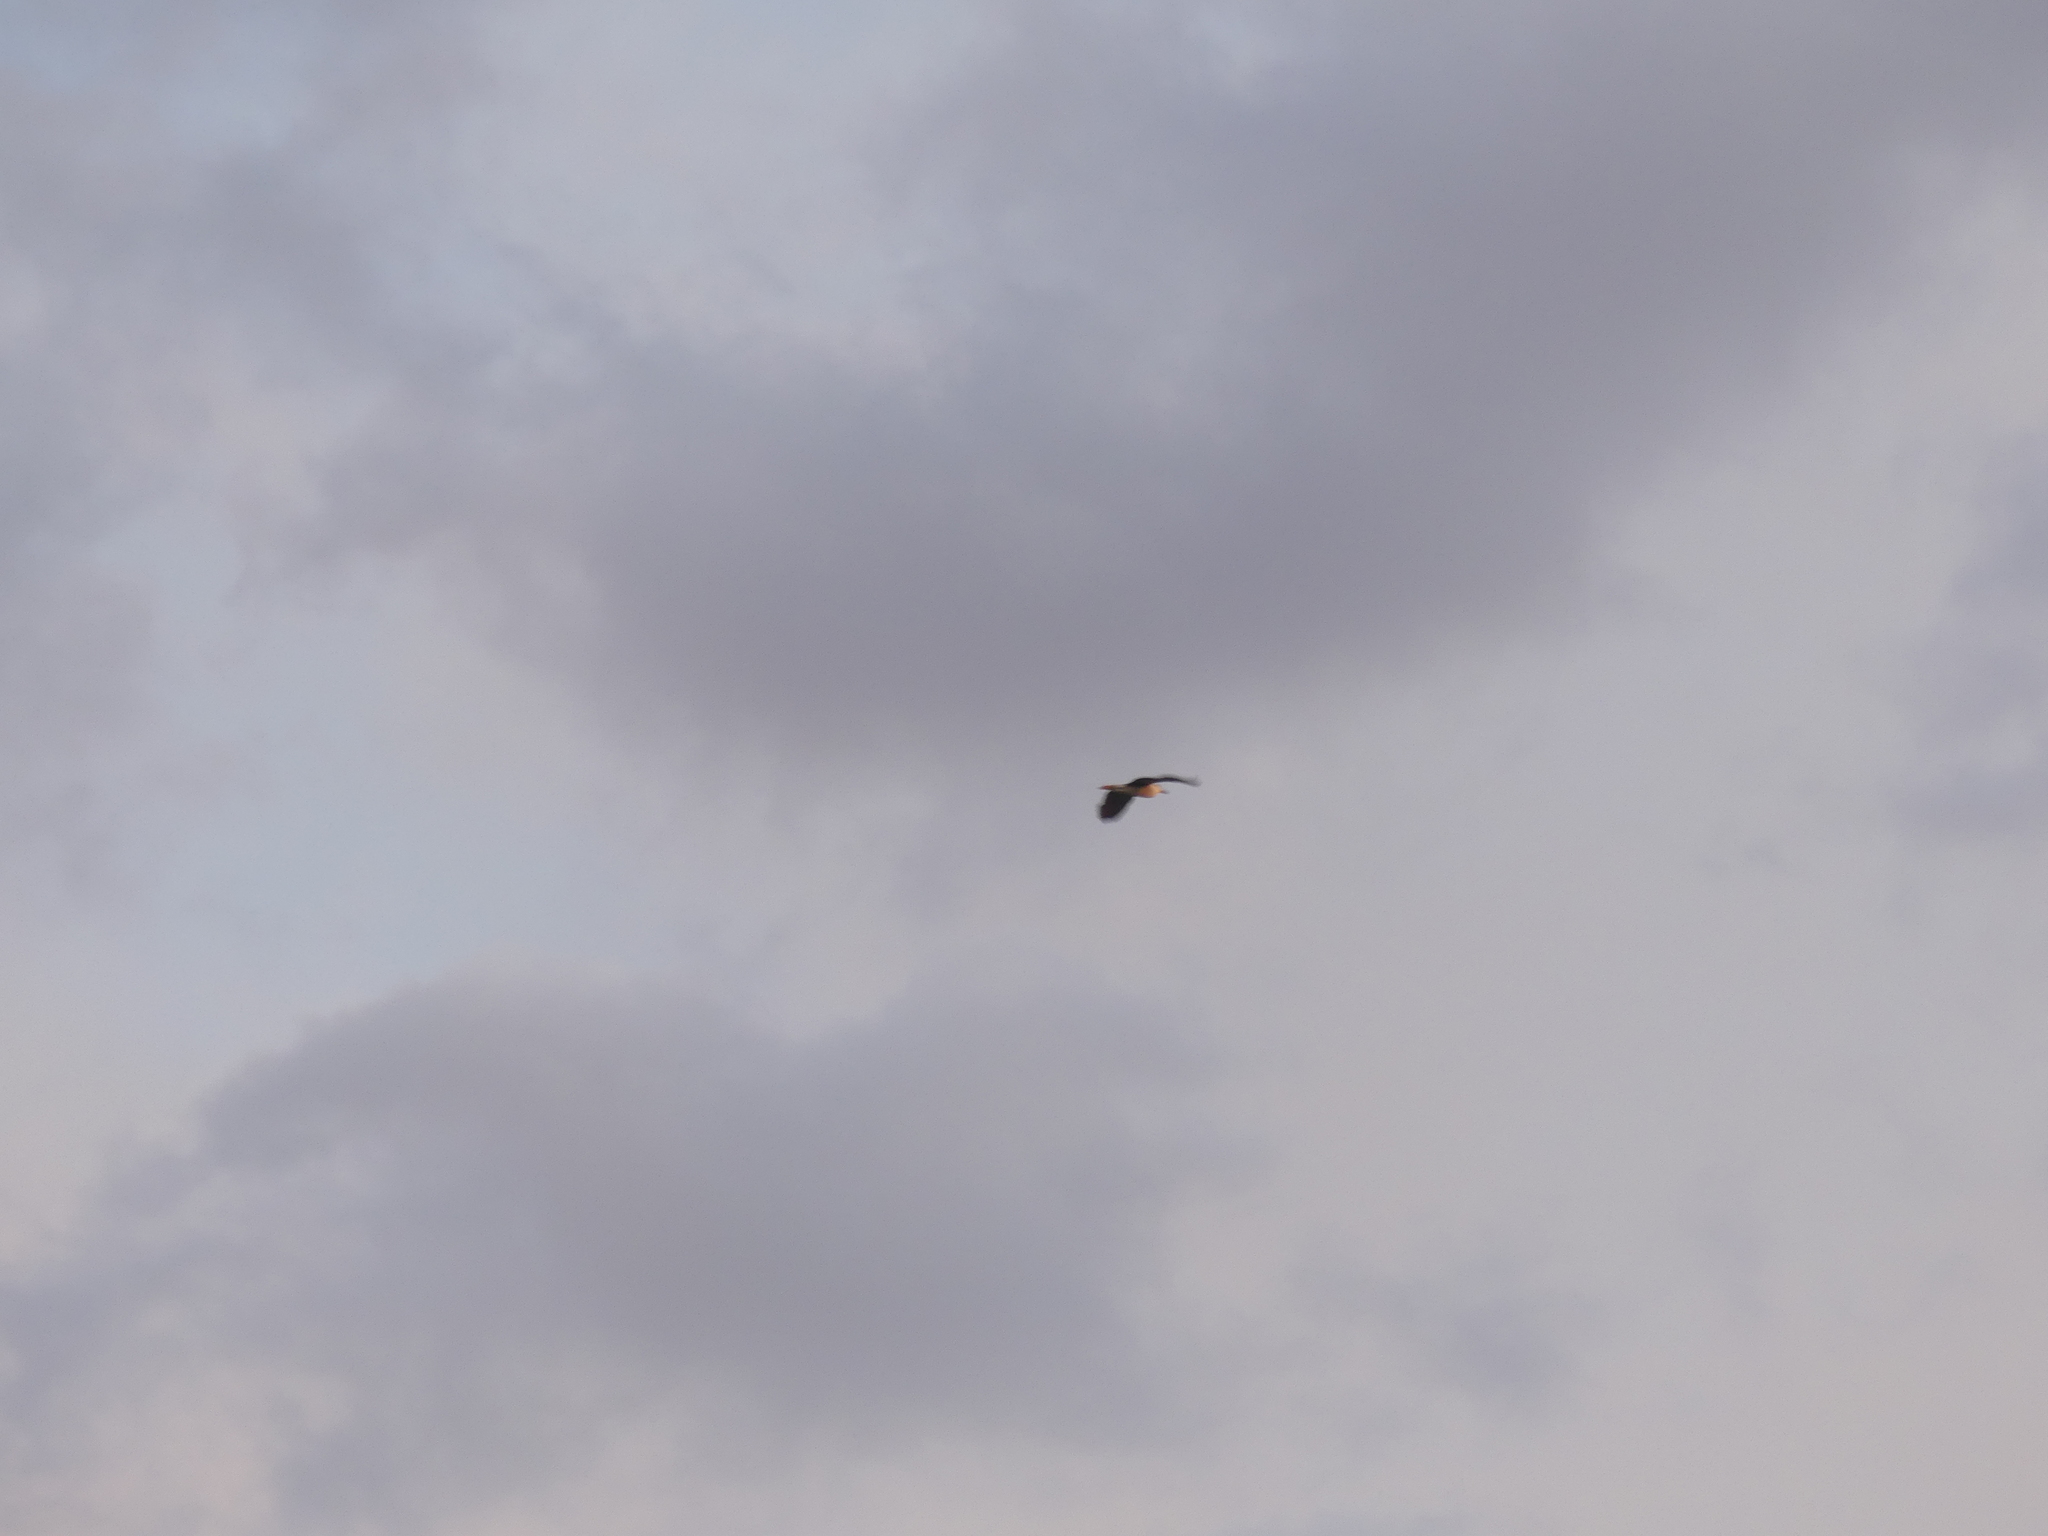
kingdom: Animalia
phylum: Chordata
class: Aves
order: Pelecaniformes
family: Ardeidae
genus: Nycticorax
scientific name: Nycticorax nycticorax
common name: Black-crowned night heron
